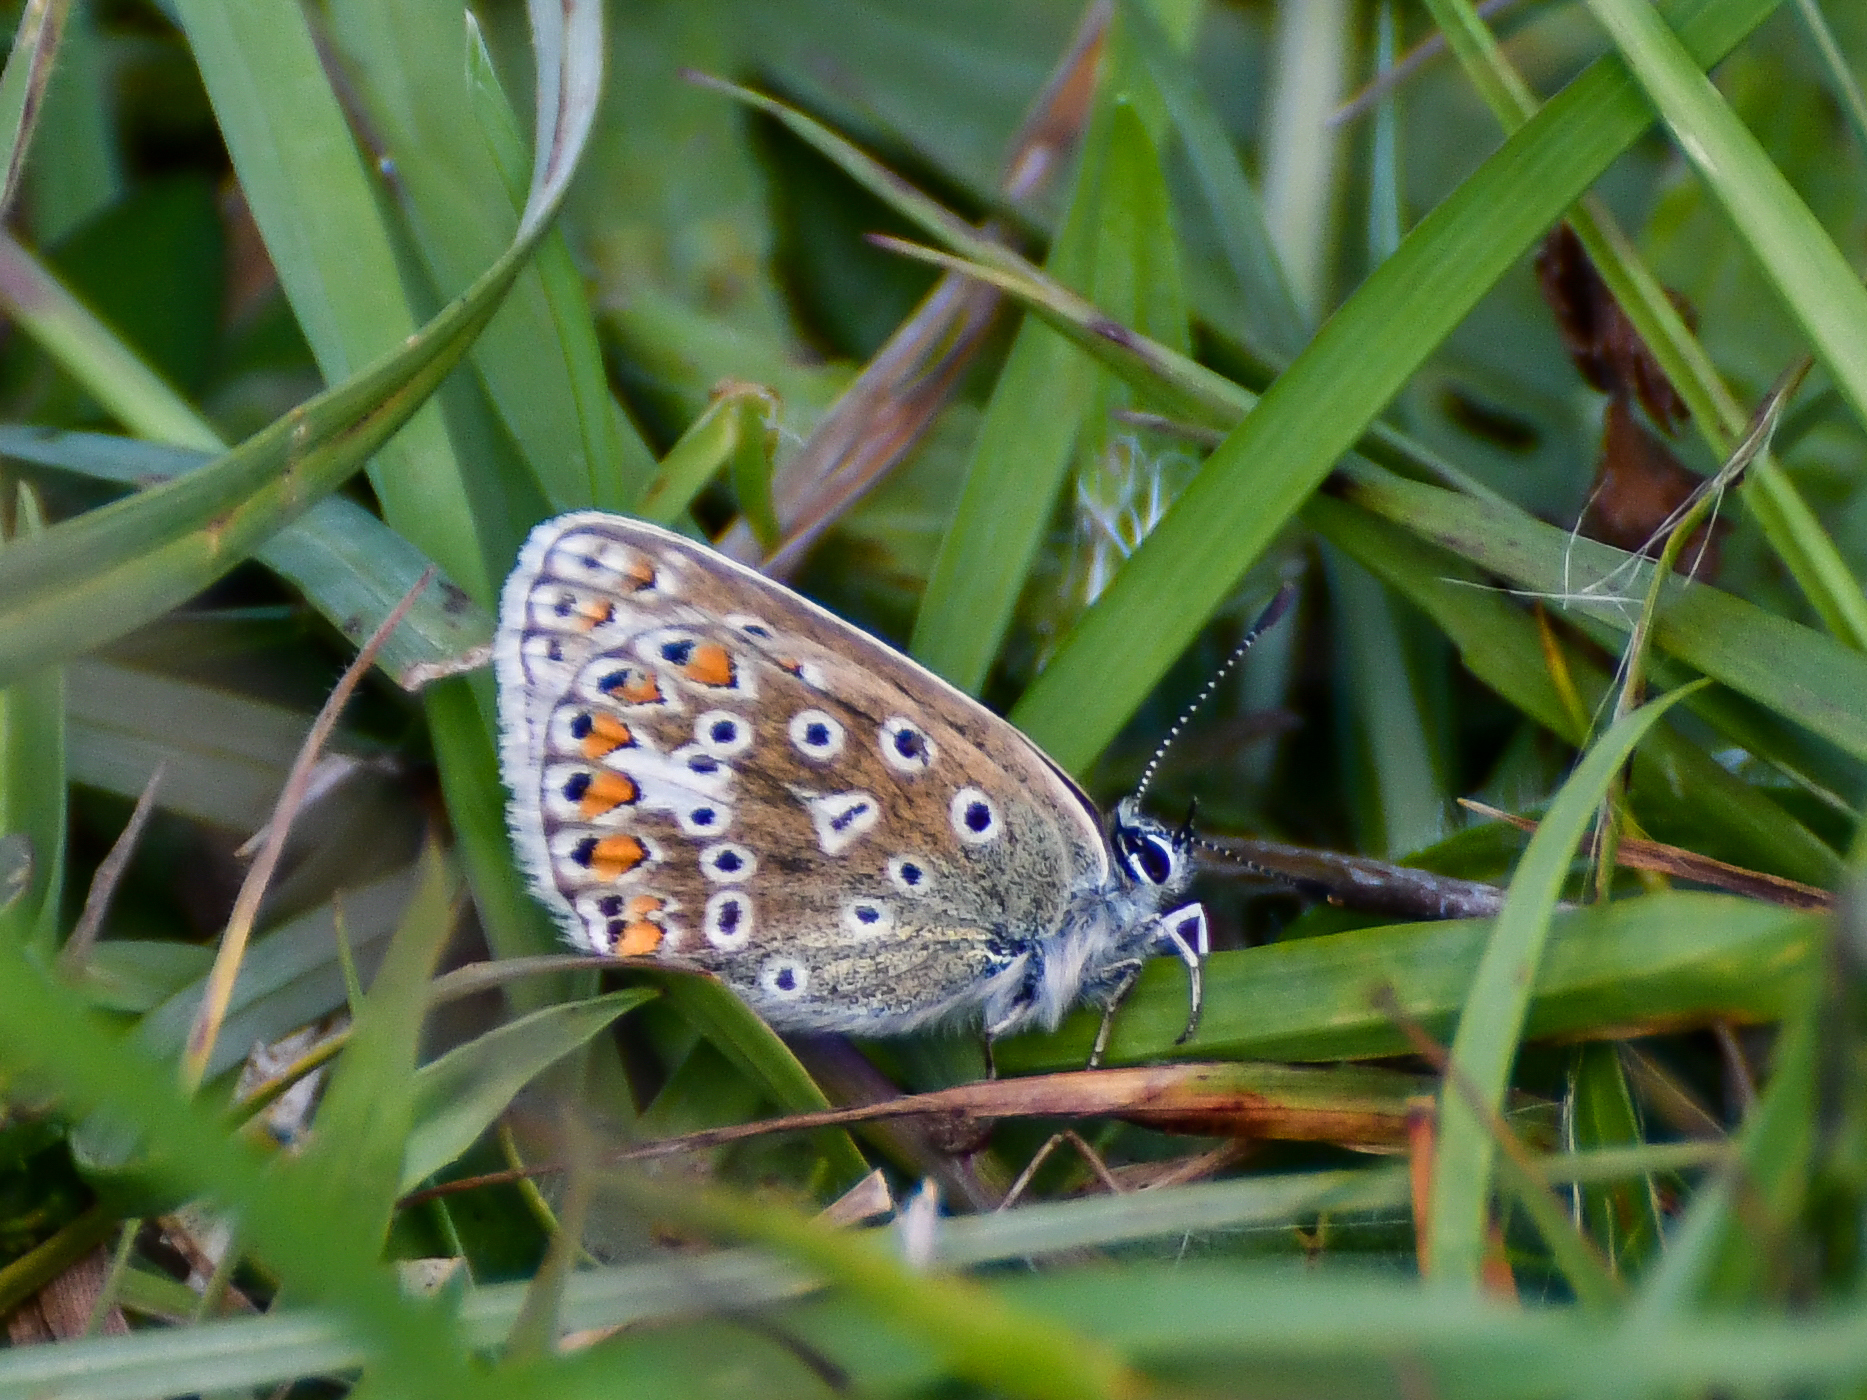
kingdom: Animalia
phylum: Arthropoda
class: Insecta
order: Lepidoptera
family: Lycaenidae
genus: Polyommatus
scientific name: Polyommatus icarus
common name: Common blue
